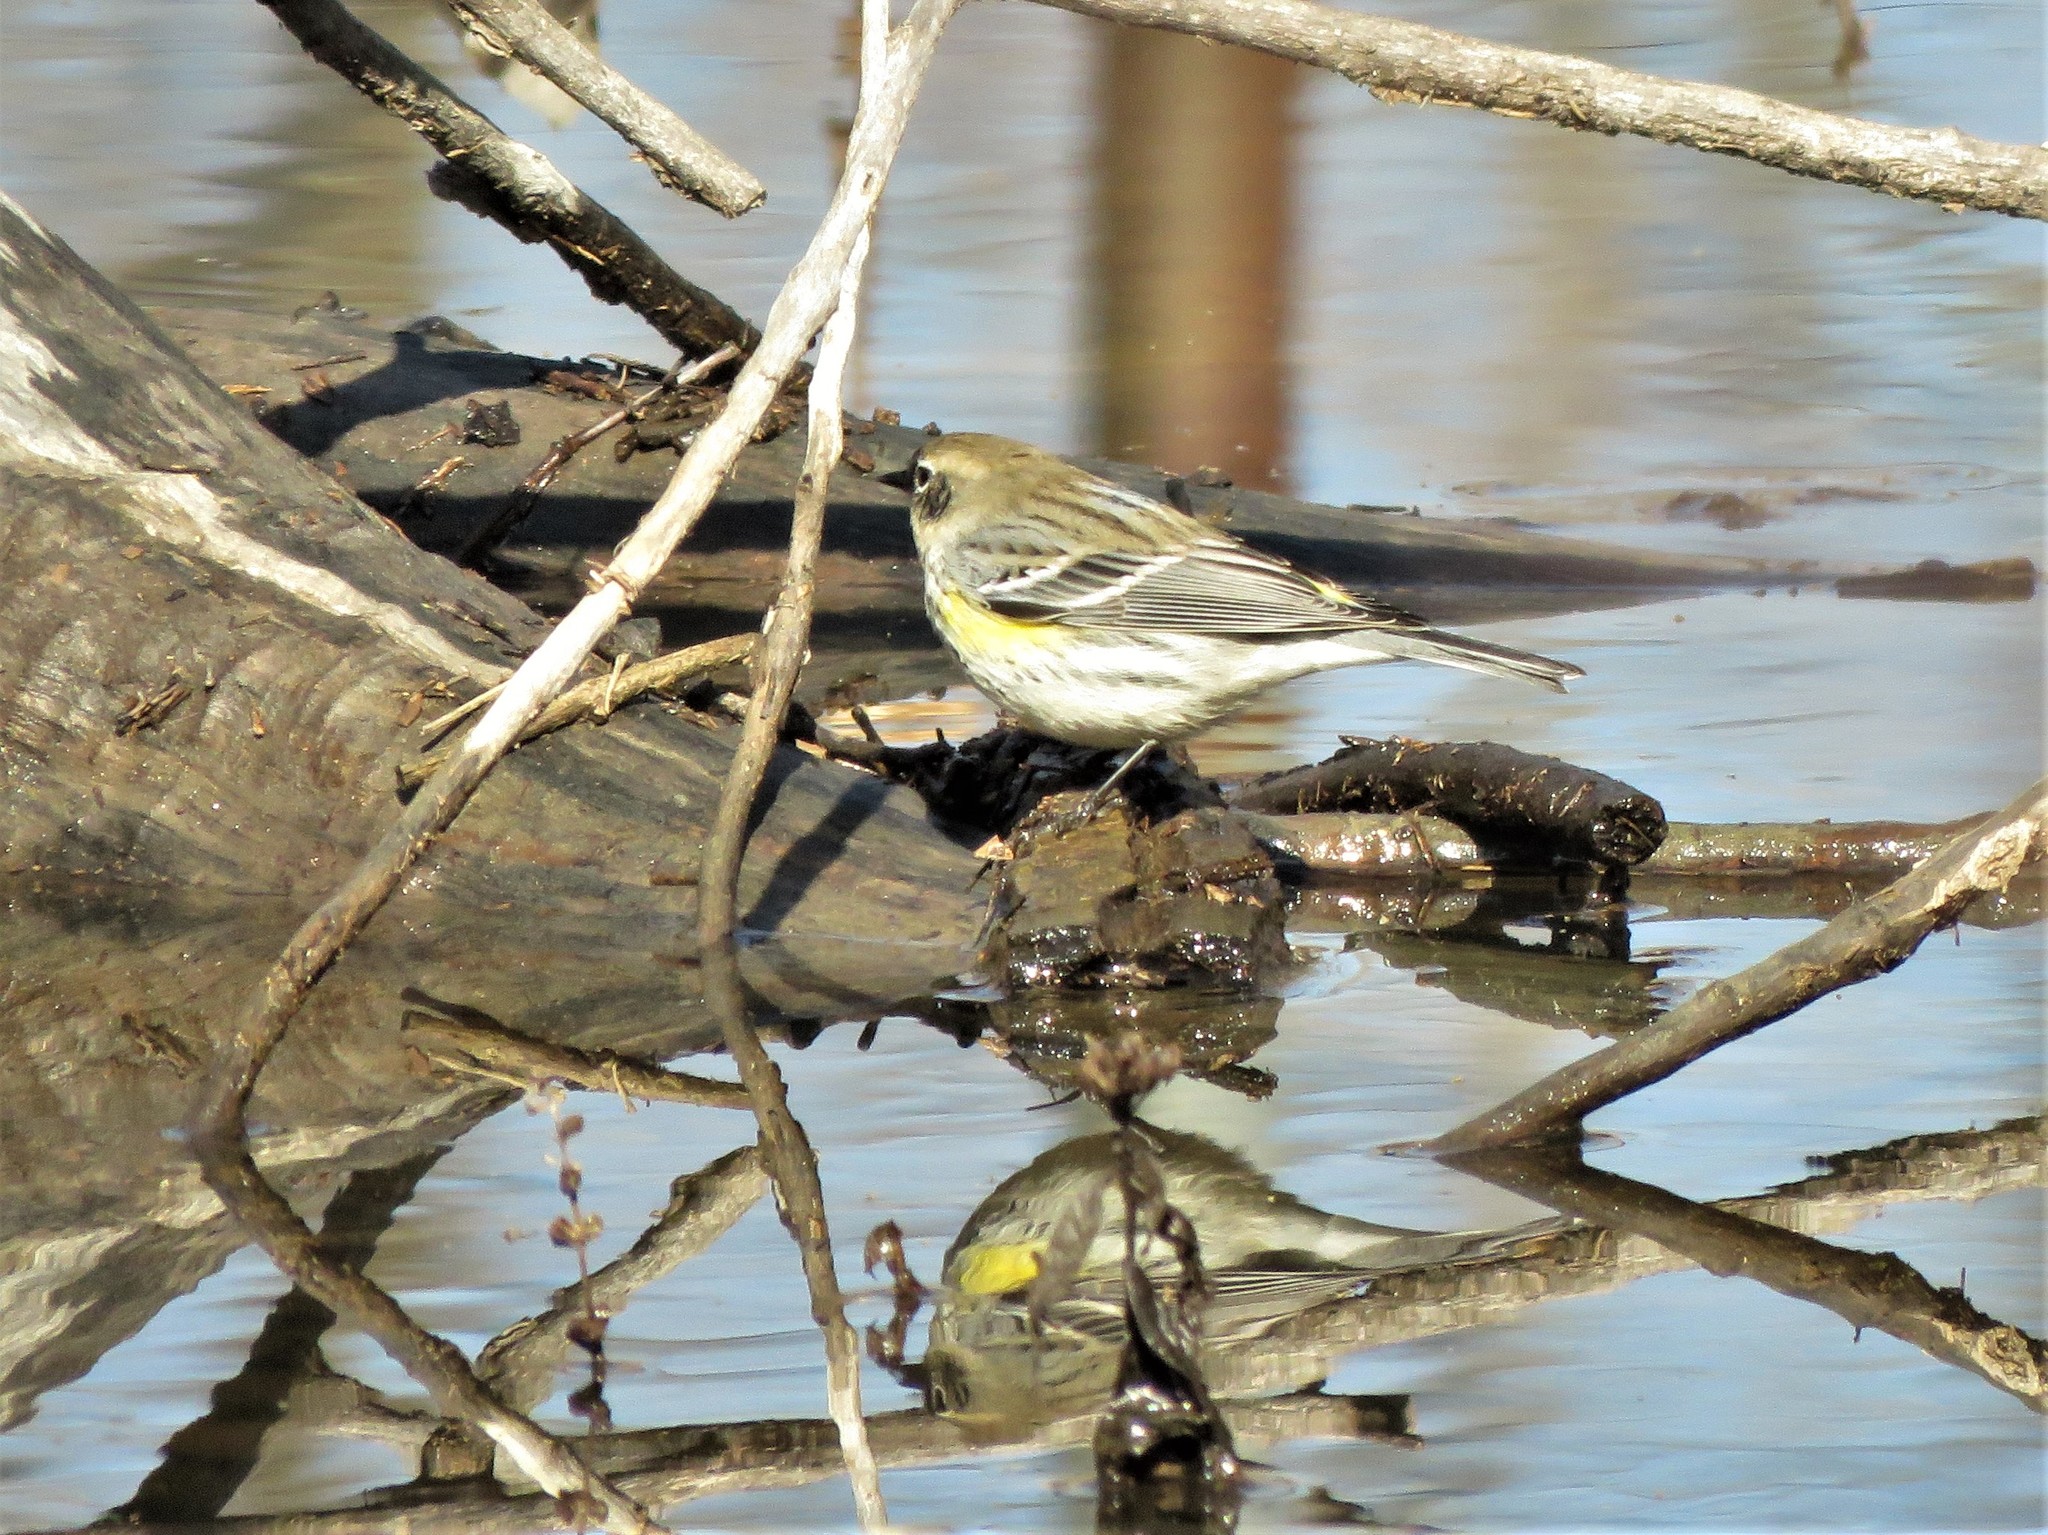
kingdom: Animalia
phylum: Chordata
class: Aves
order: Passeriformes
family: Parulidae
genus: Setophaga
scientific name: Setophaga coronata
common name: Myrtle warbler
